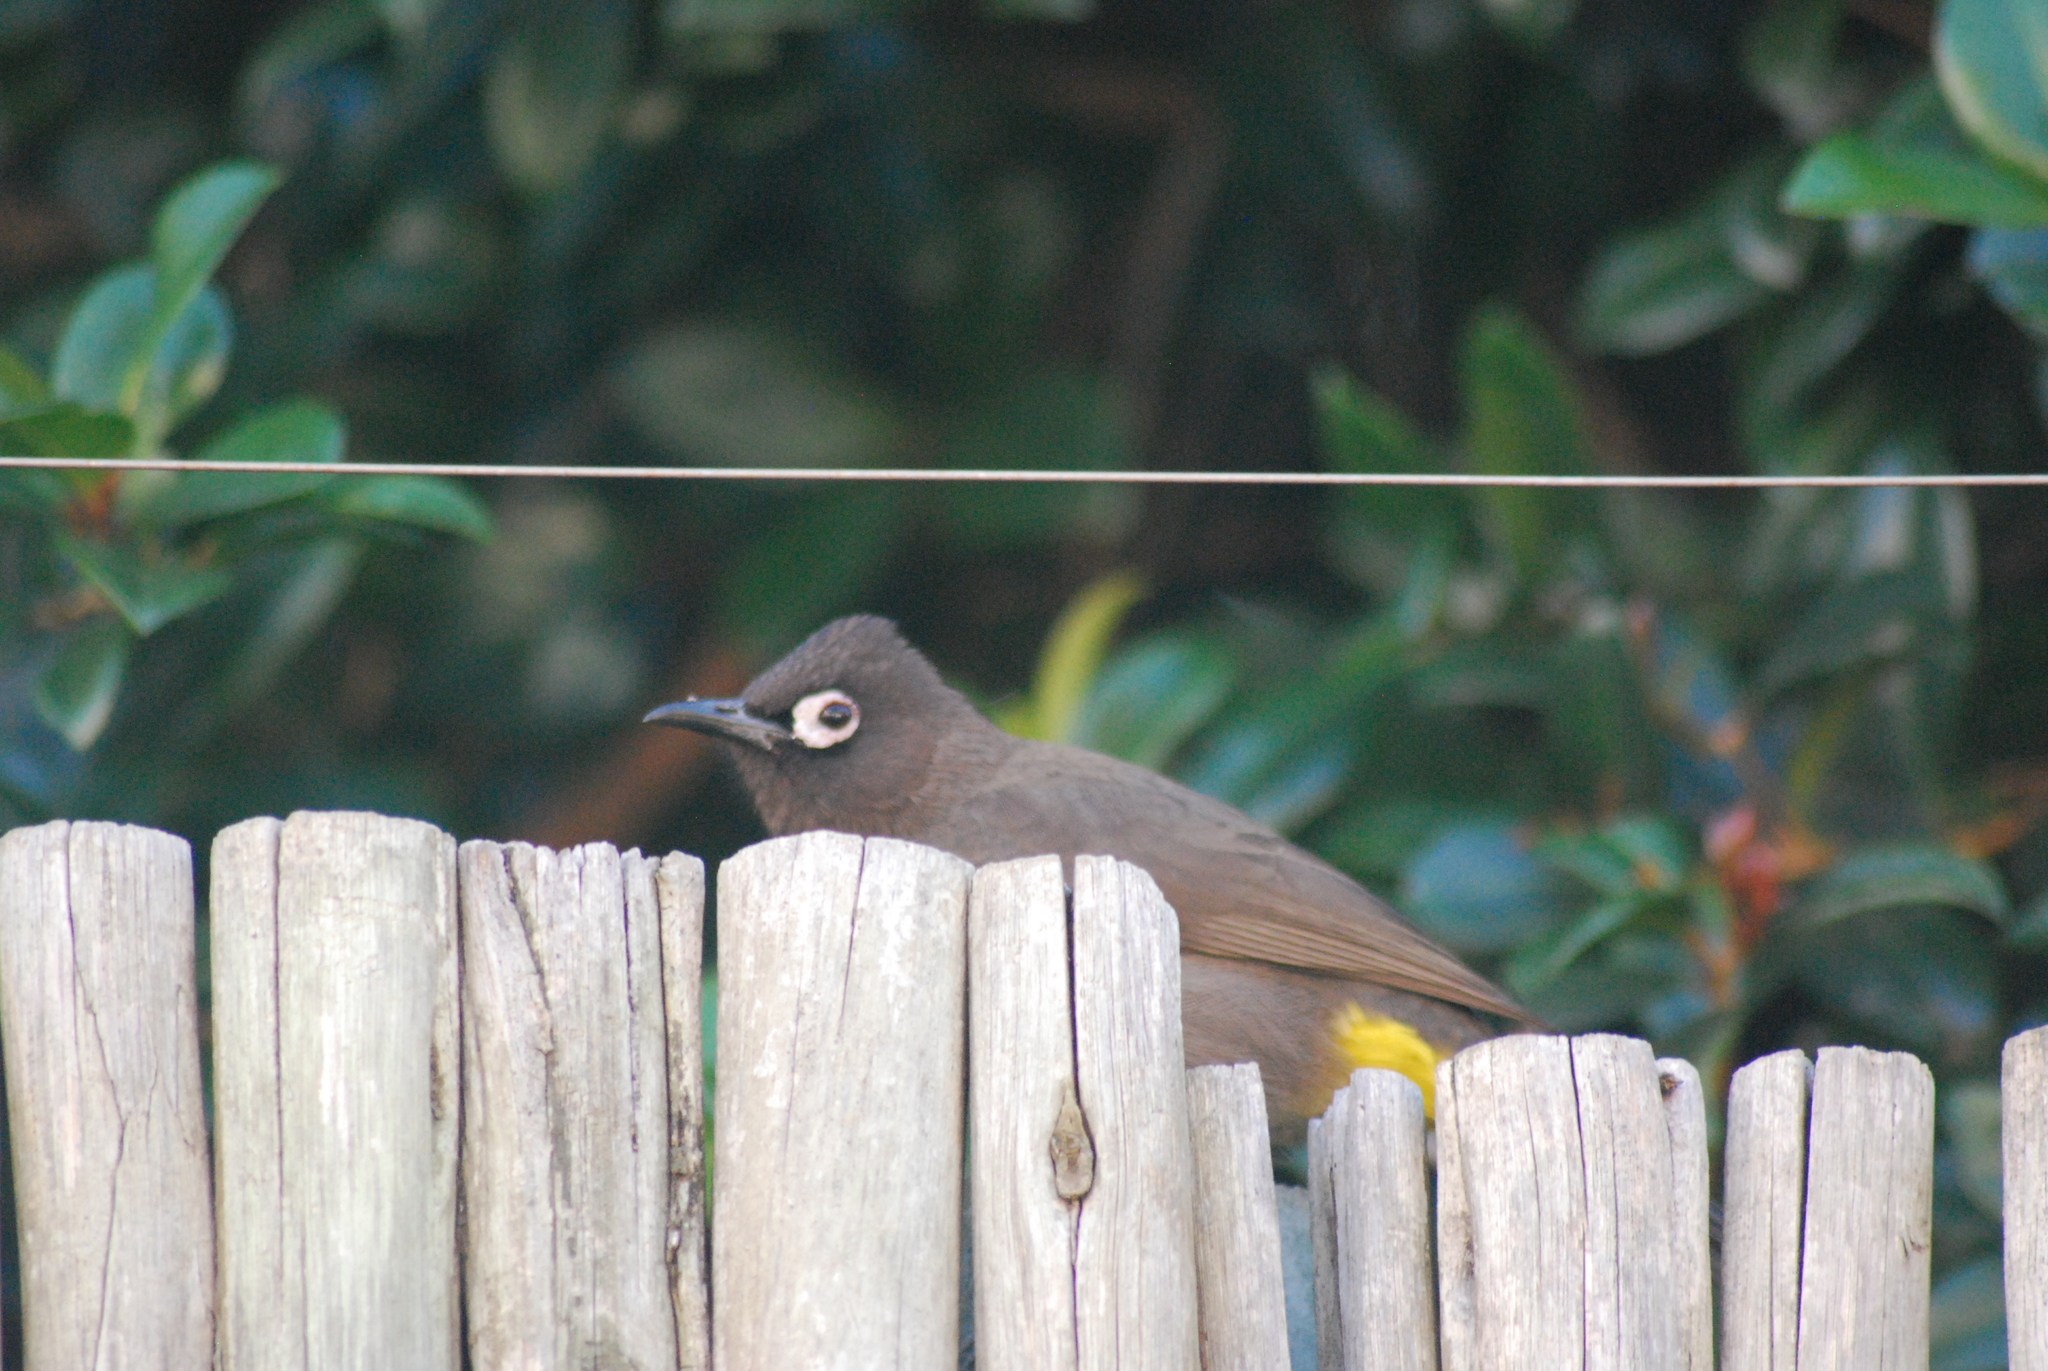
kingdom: Animalia
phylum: Chordata
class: Aves
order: Passeriformes
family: Pycnonotidae
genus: Pycnonotus
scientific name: Pycnonotus capensis
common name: Cape bulbul
